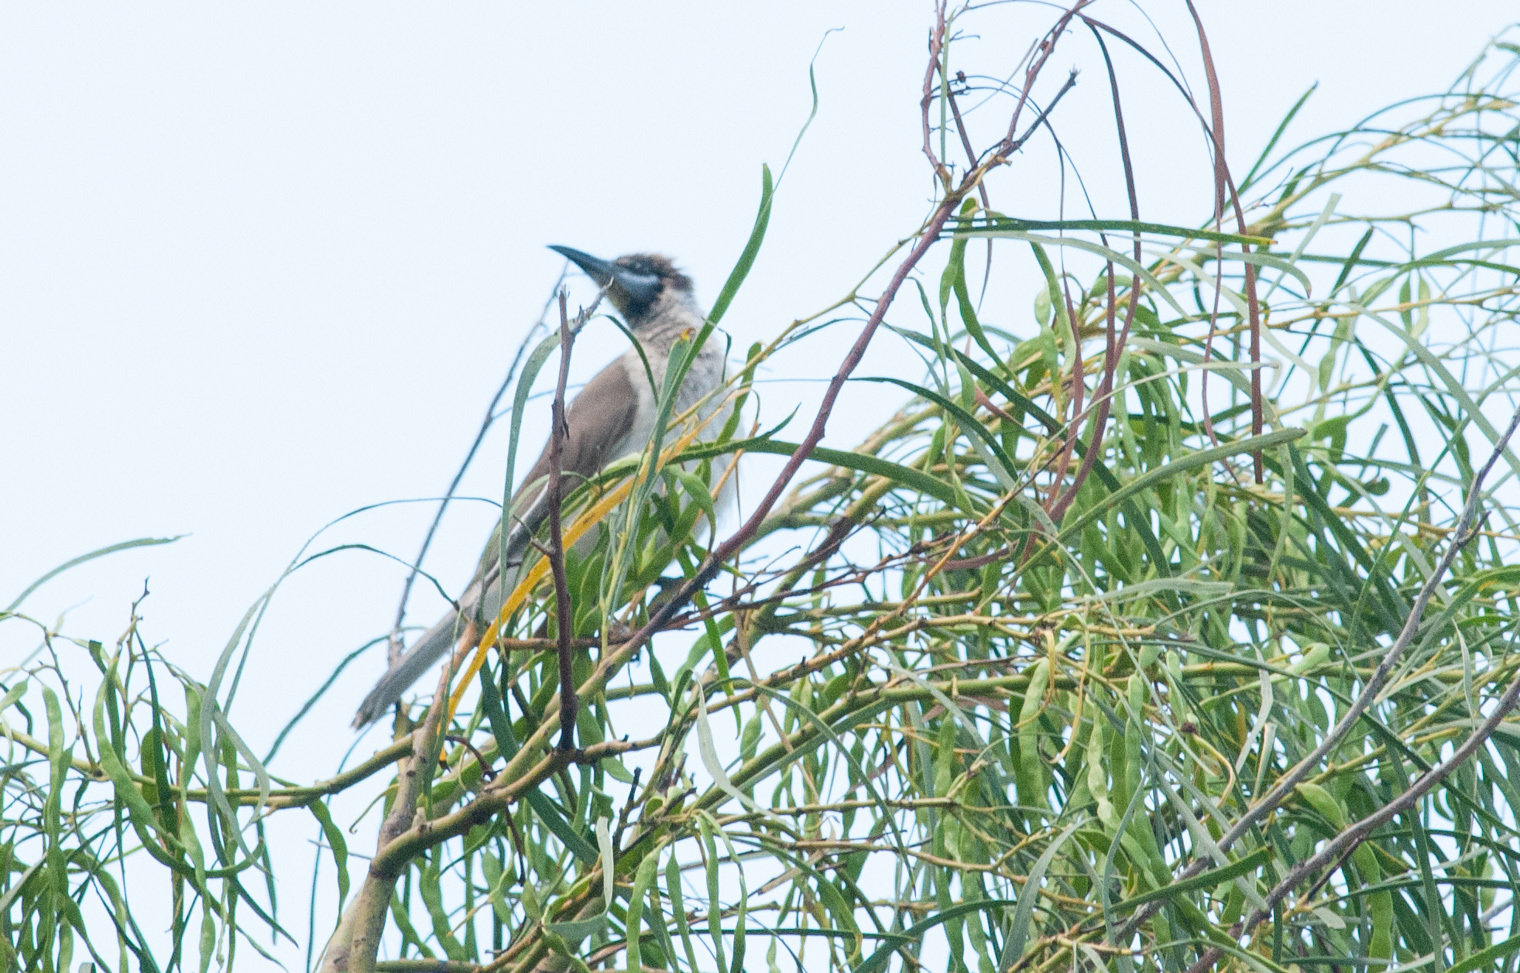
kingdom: Animalia
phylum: Chordata
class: Aves
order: Passeriformes
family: Meliphagidae
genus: Philemon
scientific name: Philemon citreogularis
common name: Little friarbird
